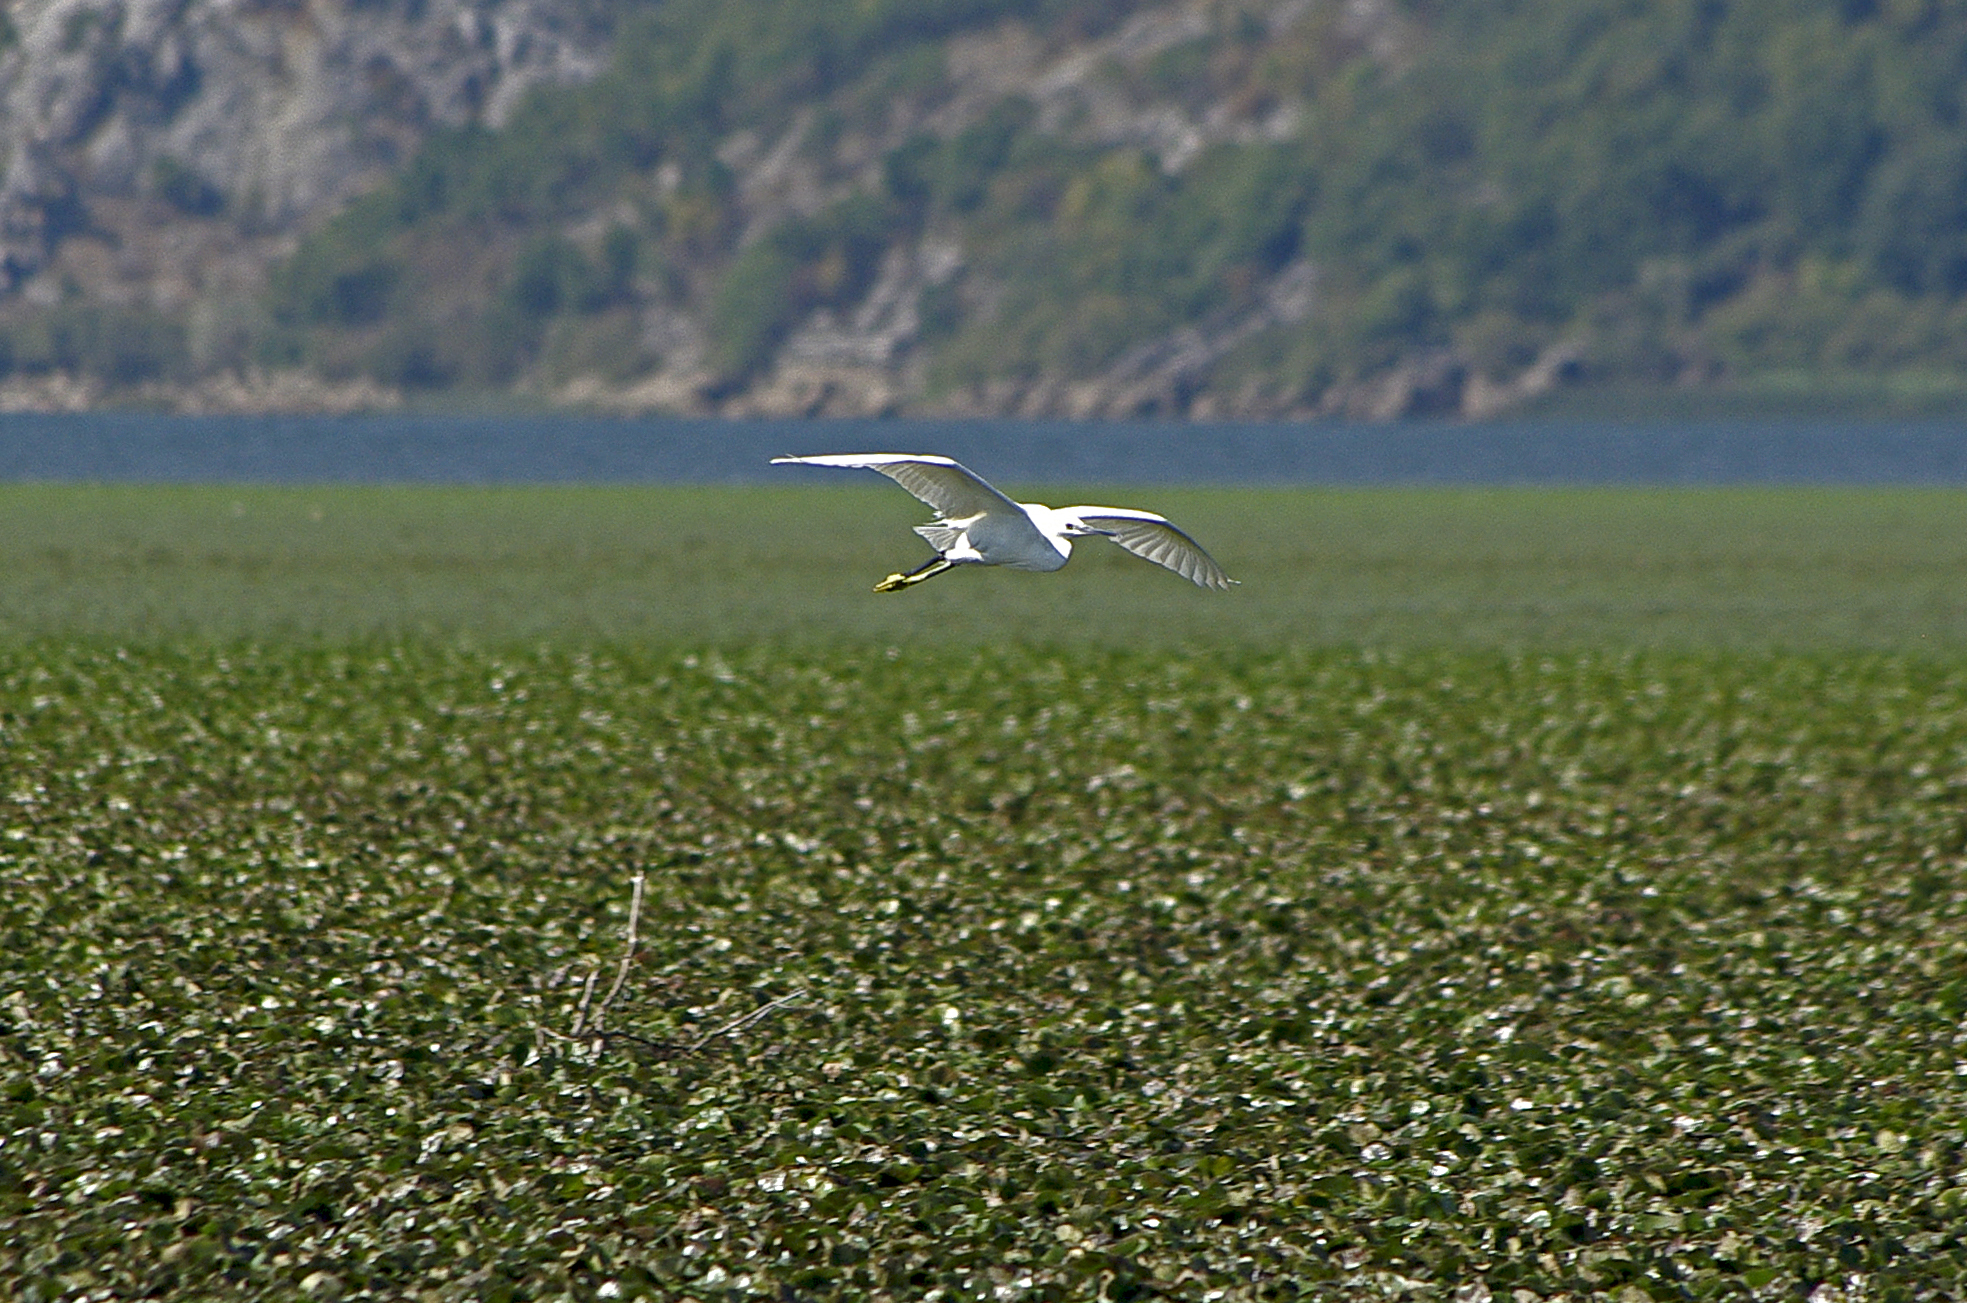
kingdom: Animalia
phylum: Chordata
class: Aves
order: Pelecaniformes
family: Ardeidae
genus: Egretta
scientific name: Egretta garzetta
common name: Little egret
